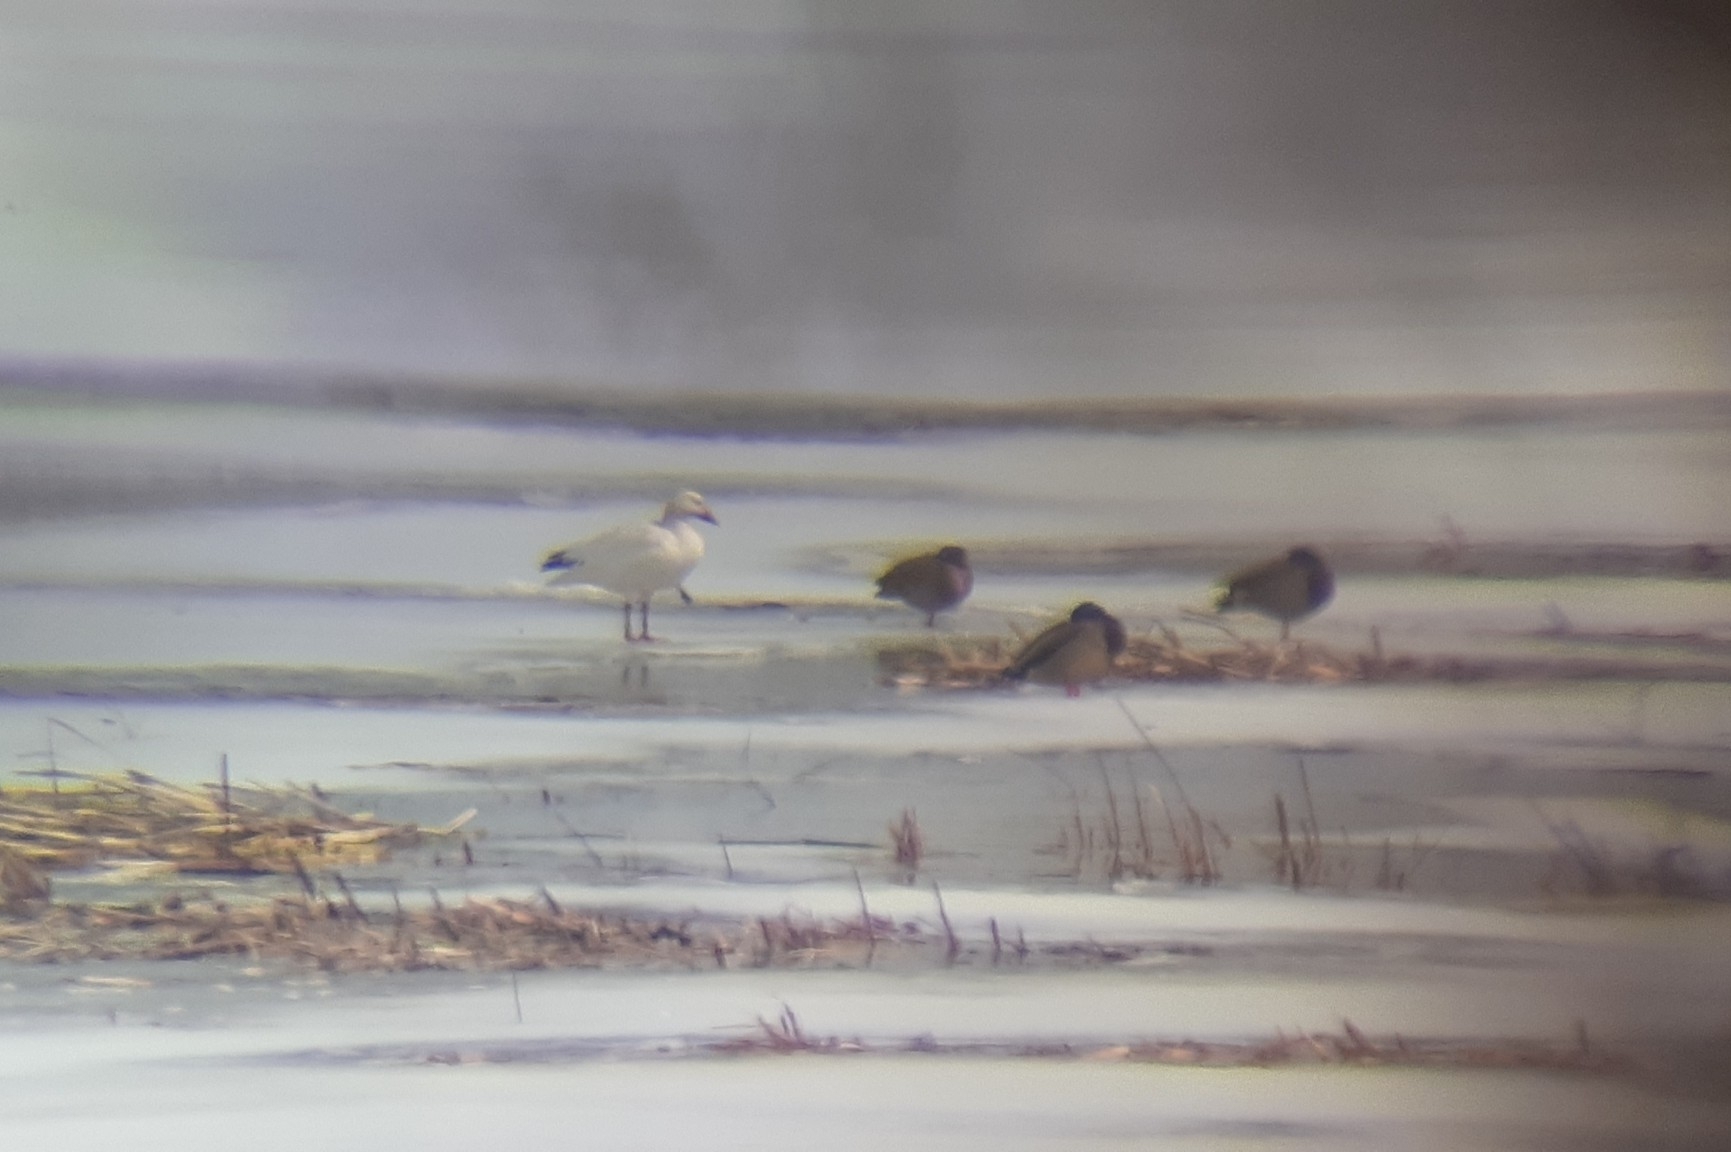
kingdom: Animalia
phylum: Chordata
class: Aves
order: Anseriformes
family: Anatidae
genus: Anser
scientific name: Anser caerulescens
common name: Snow goose
